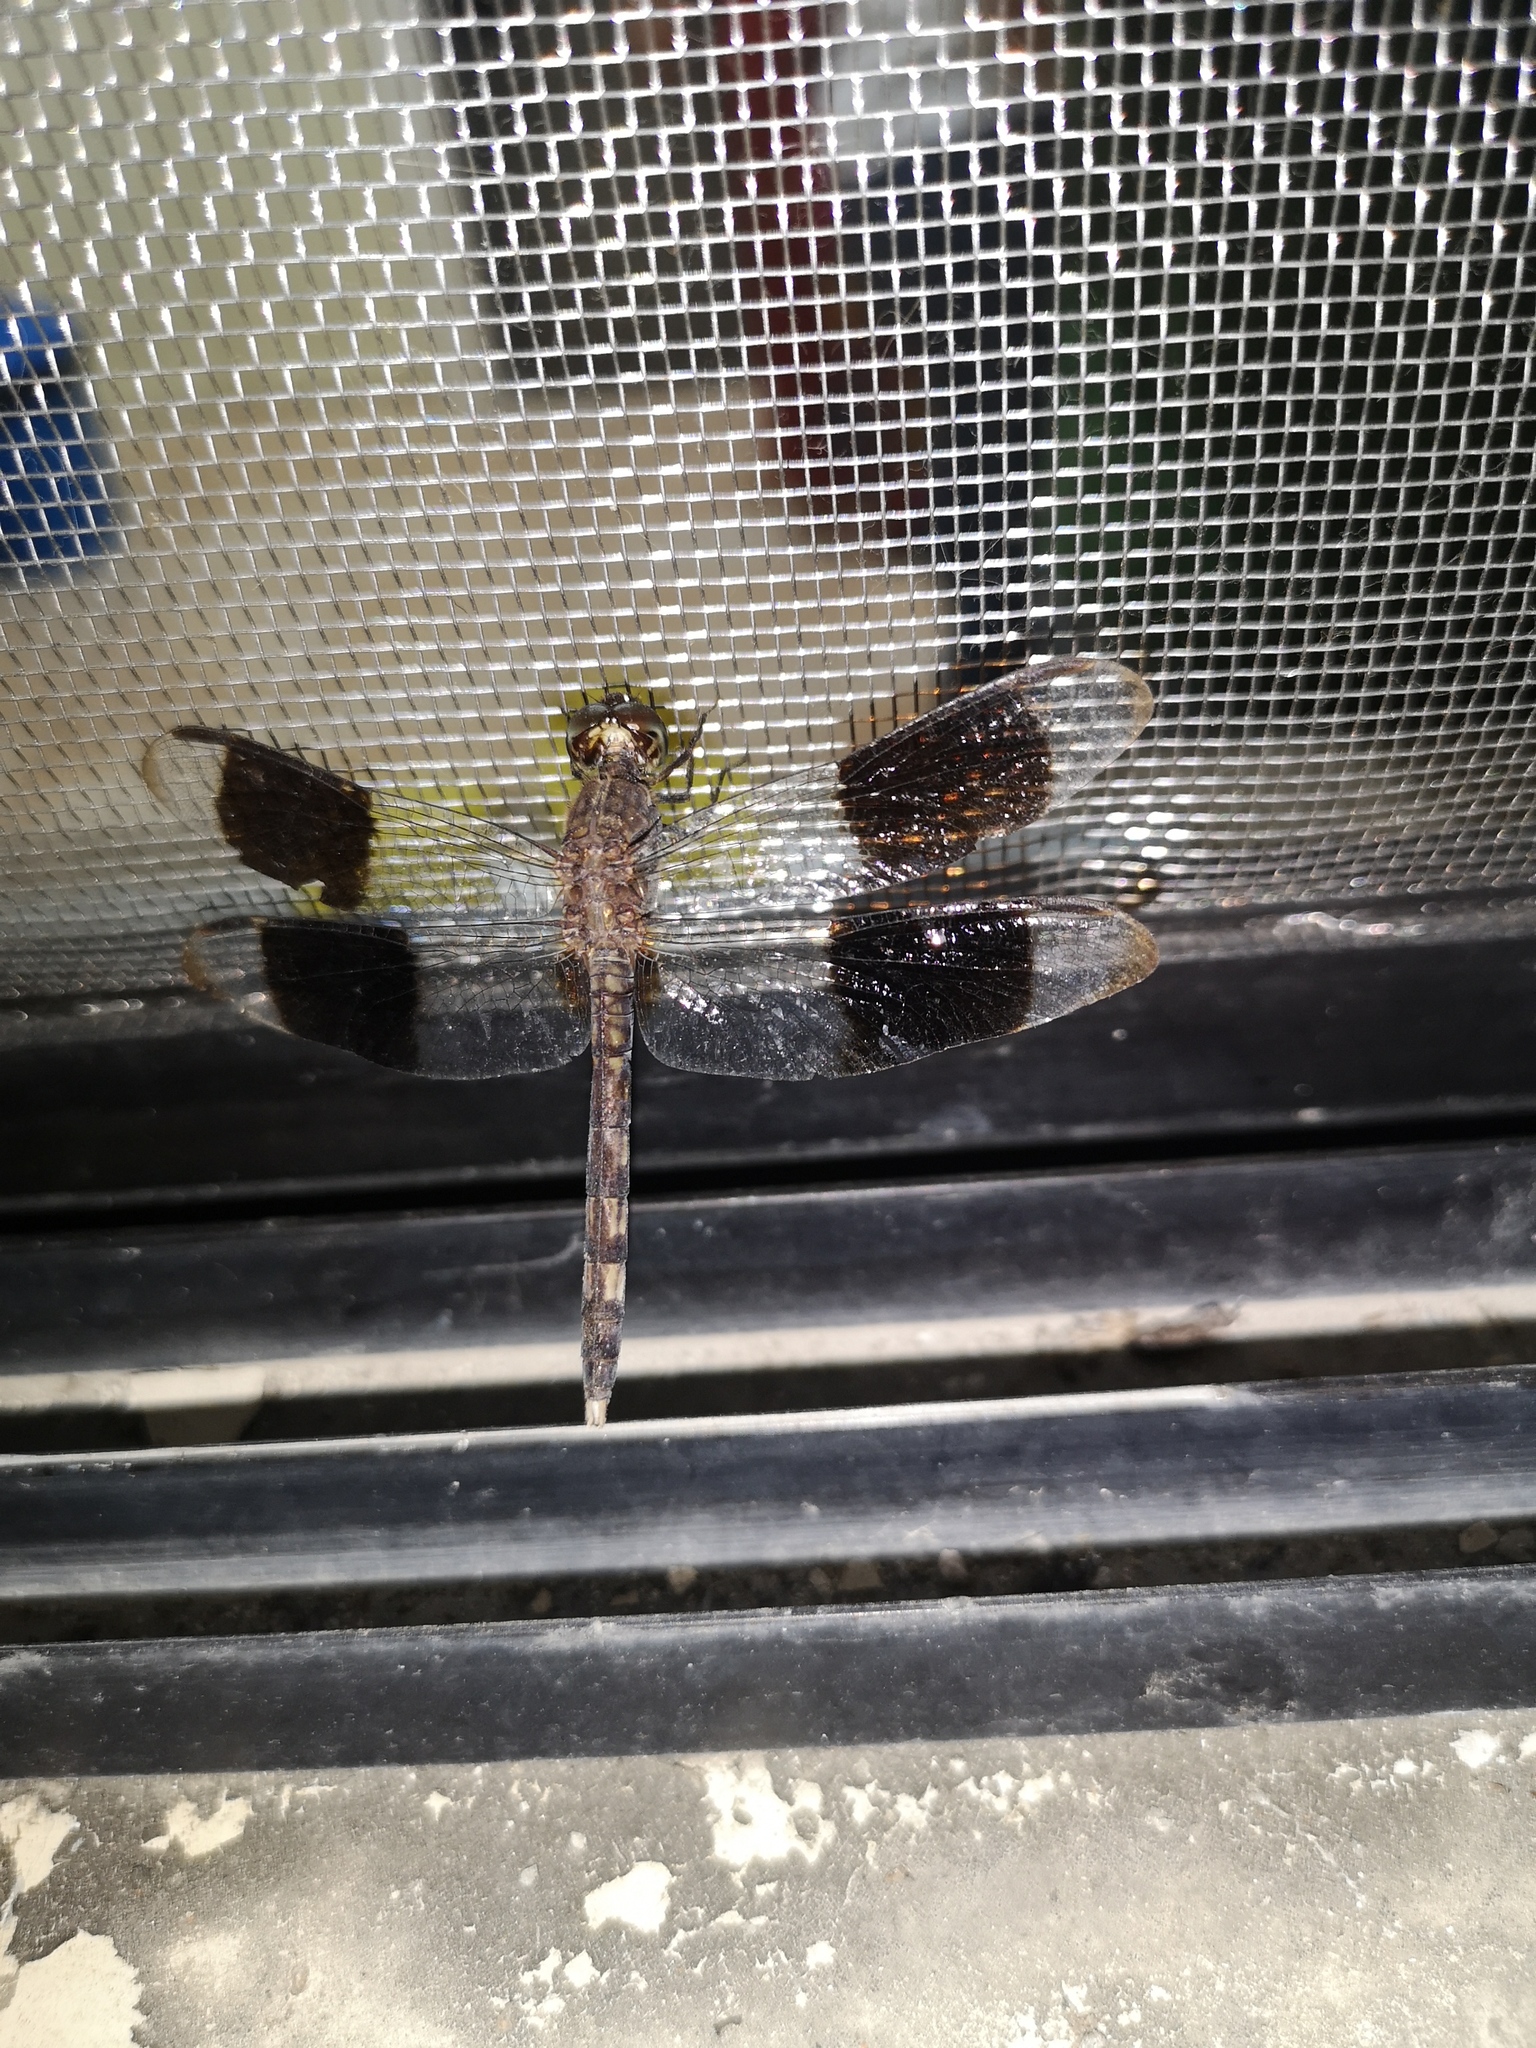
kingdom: Animalia
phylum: Arthropoda
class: Insecta
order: Odonata
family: Libellulidae
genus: Erythrodiplax
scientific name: Erythrodiplax umbrata
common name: Band-winged dragonlet
